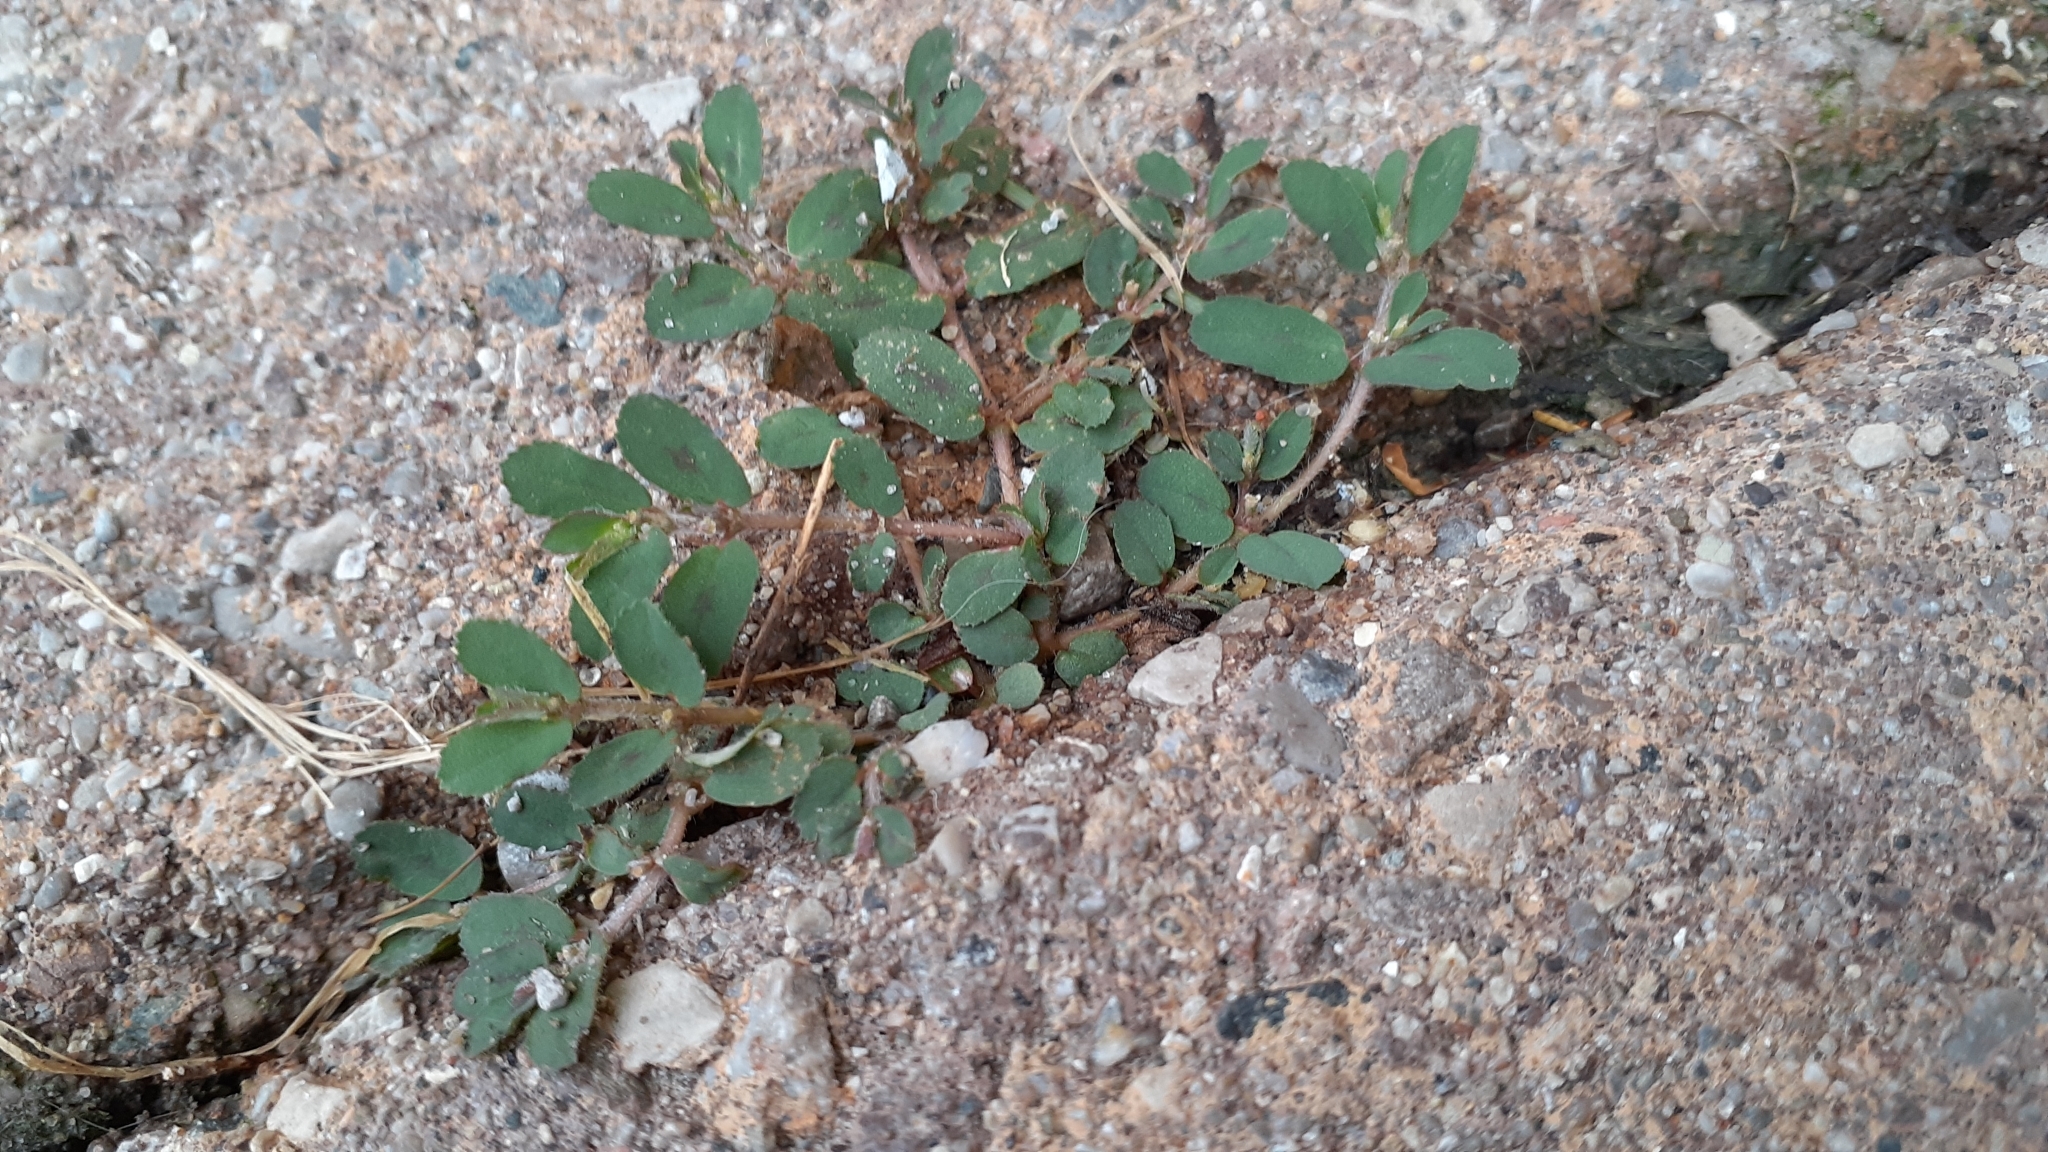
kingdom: Plantae
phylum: Tracheophyta
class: Magnoliopsida
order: Malpighiales
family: Euphorbiaceae
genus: Euphorbia
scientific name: Euphorbia maculata
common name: Spotted spurge
